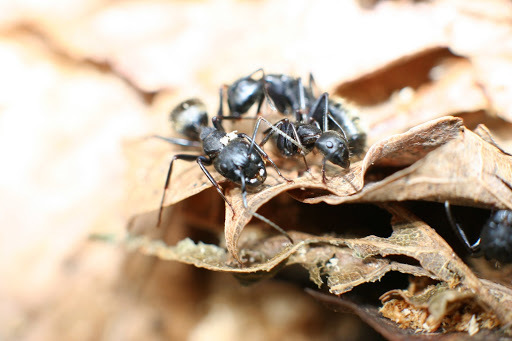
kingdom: Animalia
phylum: Arthropoda
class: Insecta
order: Hymenoptera
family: Formicidae
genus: Camponotus
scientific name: Camponotus pennsylvanicus
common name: Black carpenter ant
